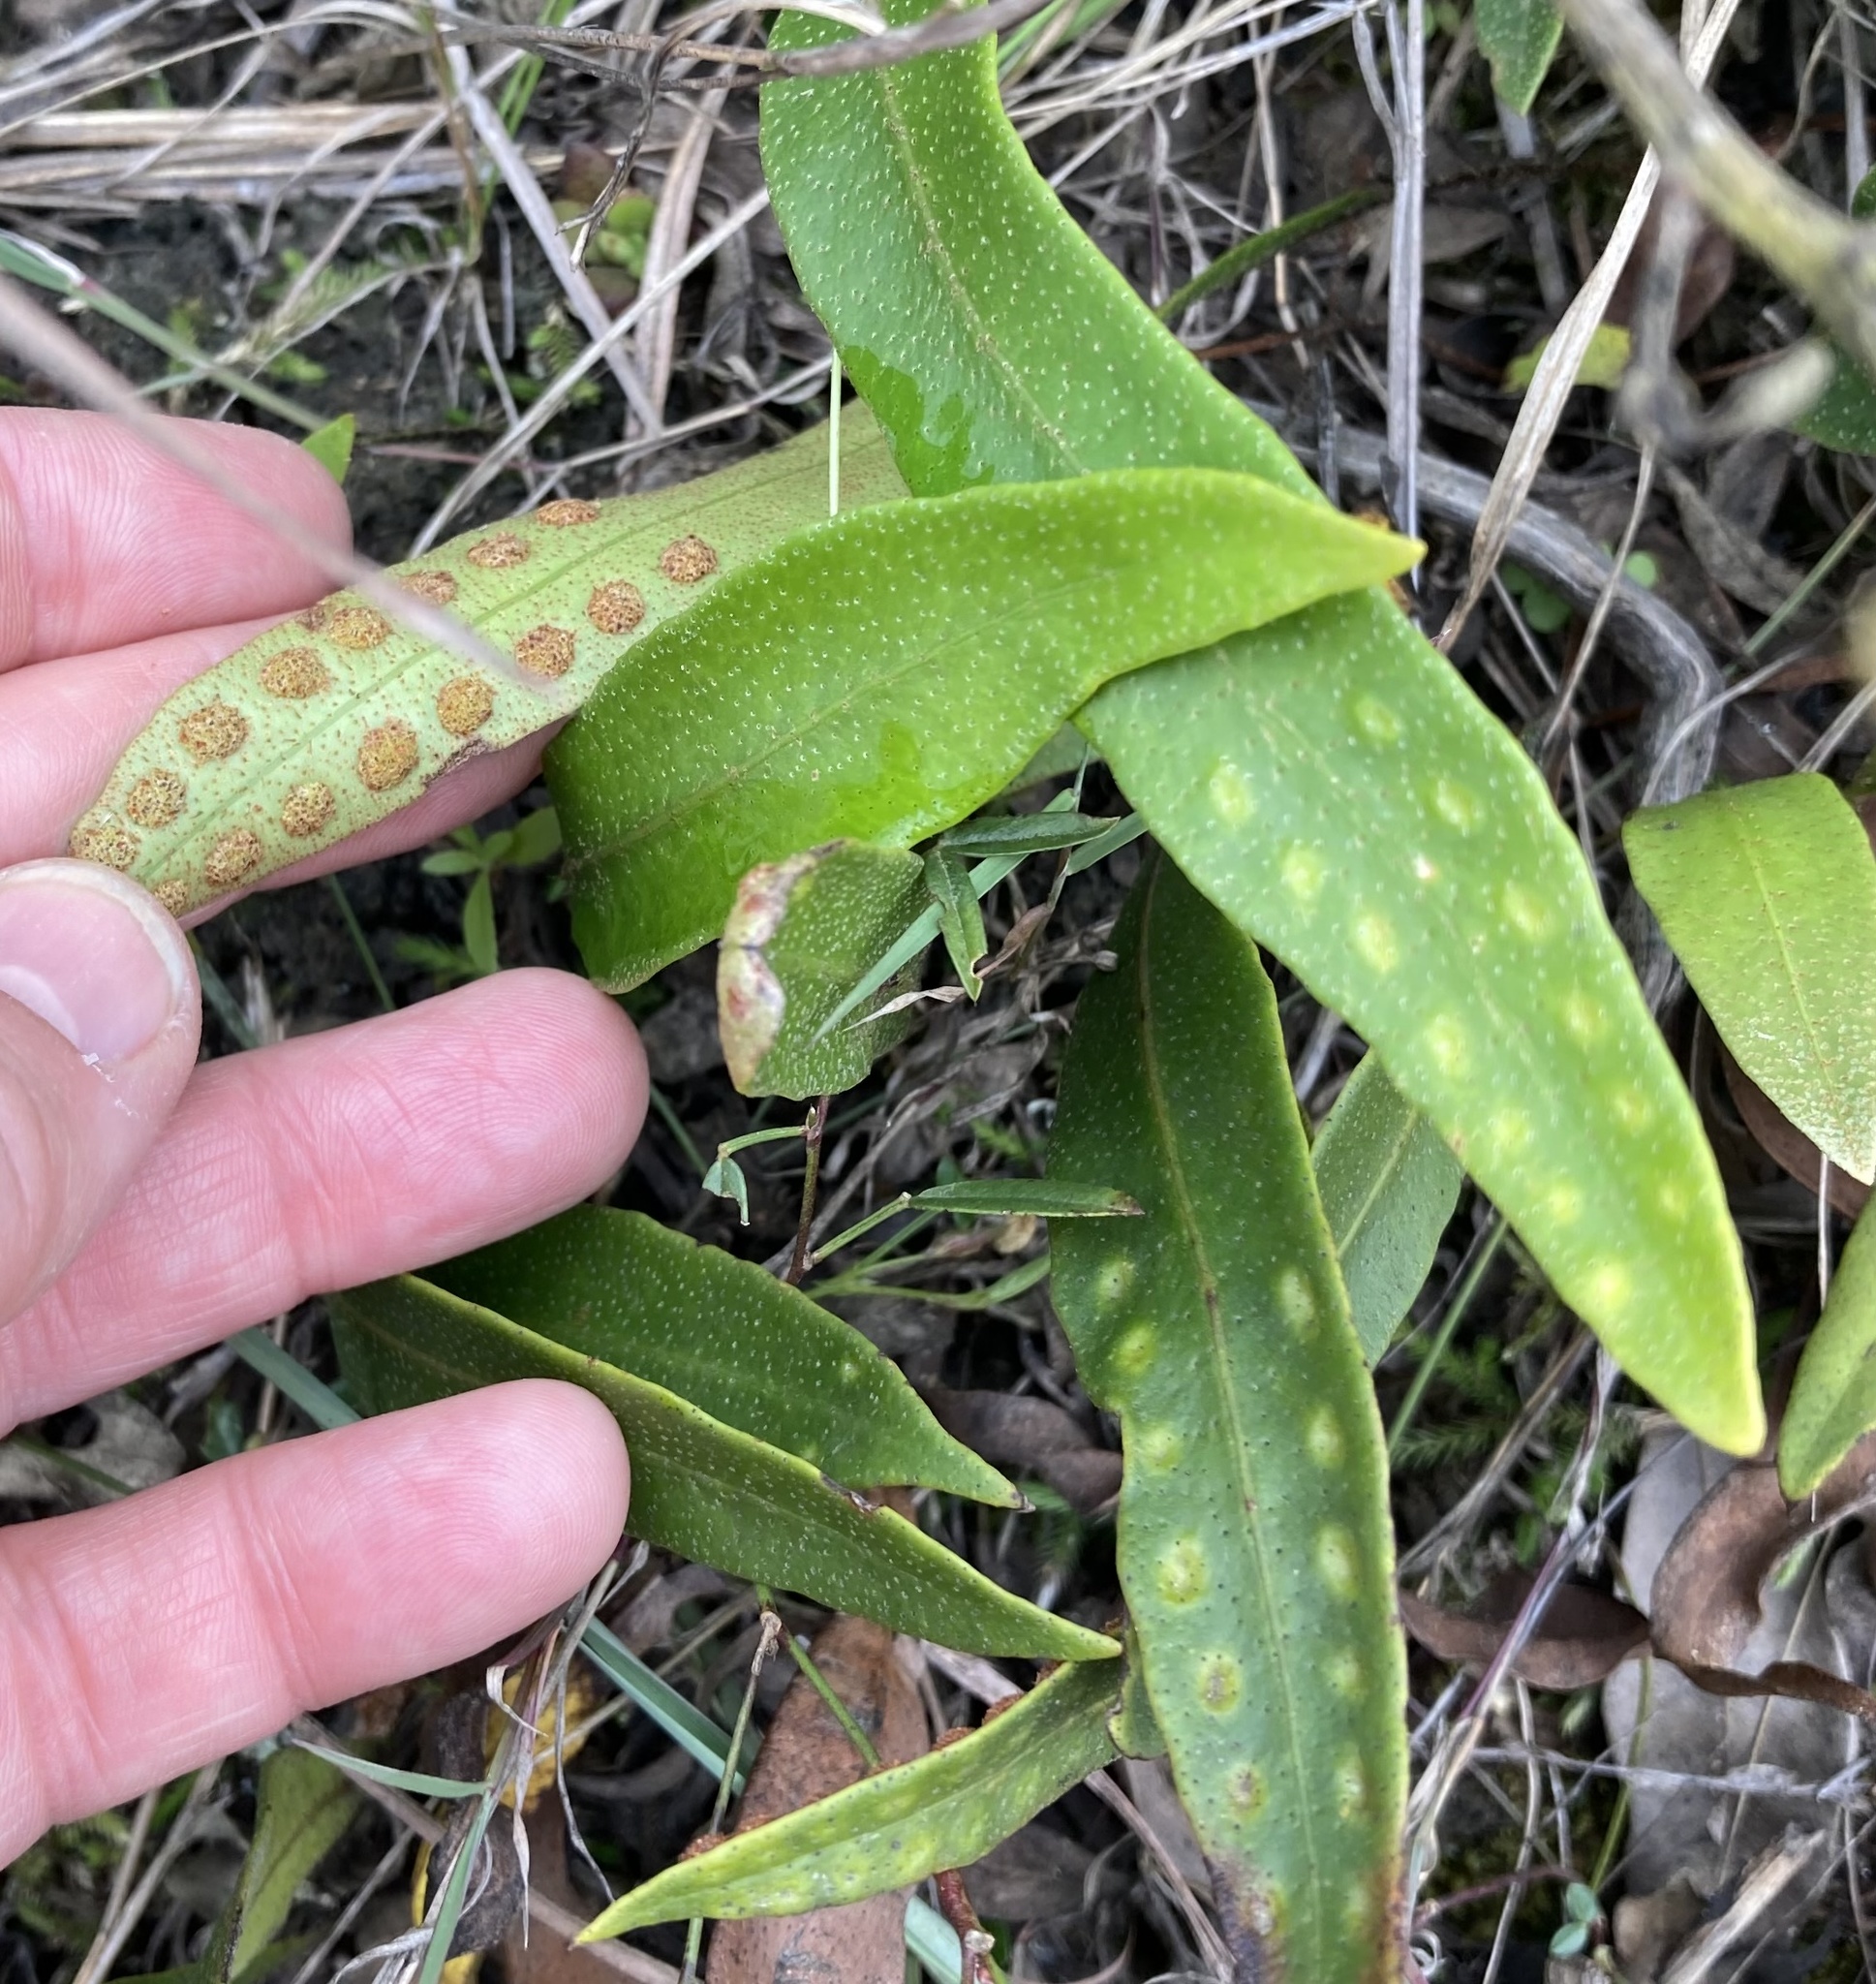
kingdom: Plantae
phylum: Tracheophyta
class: Polypodiopsida
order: Polypodiales
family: Polypodiaceae
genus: Pleopeltis
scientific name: Pleopeltis macrocarpa
